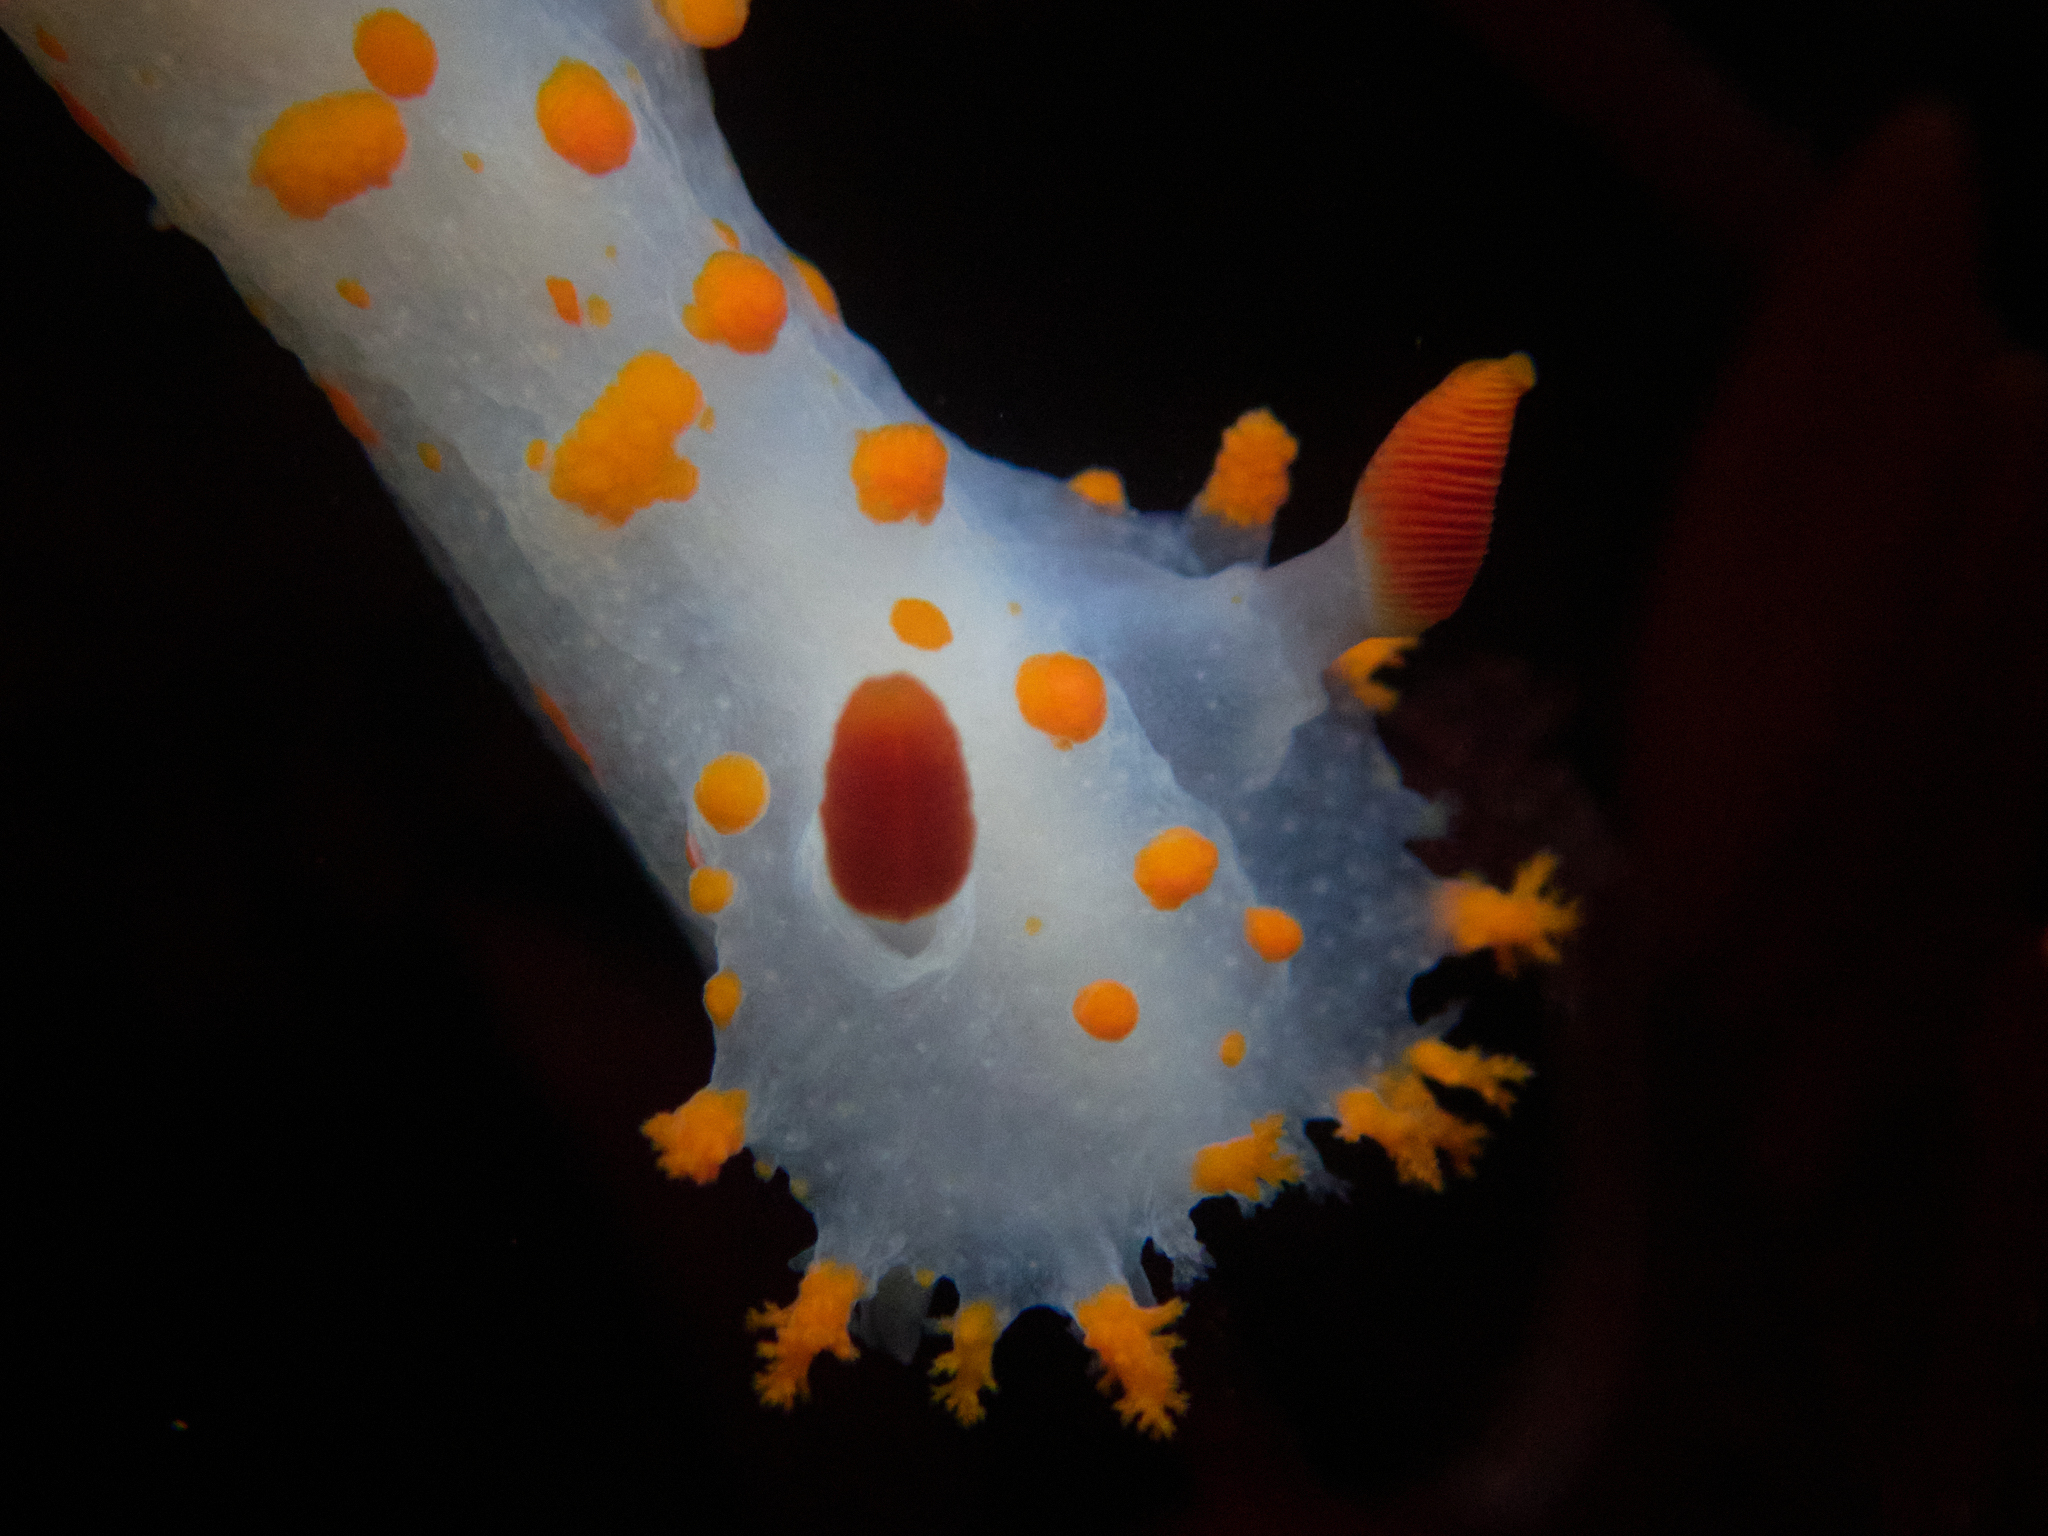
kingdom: Animalia
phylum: Mollusca
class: Gastropoda
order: Nudibranchia
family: Polyceridae
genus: Triopha
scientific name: Triopha catalinae
